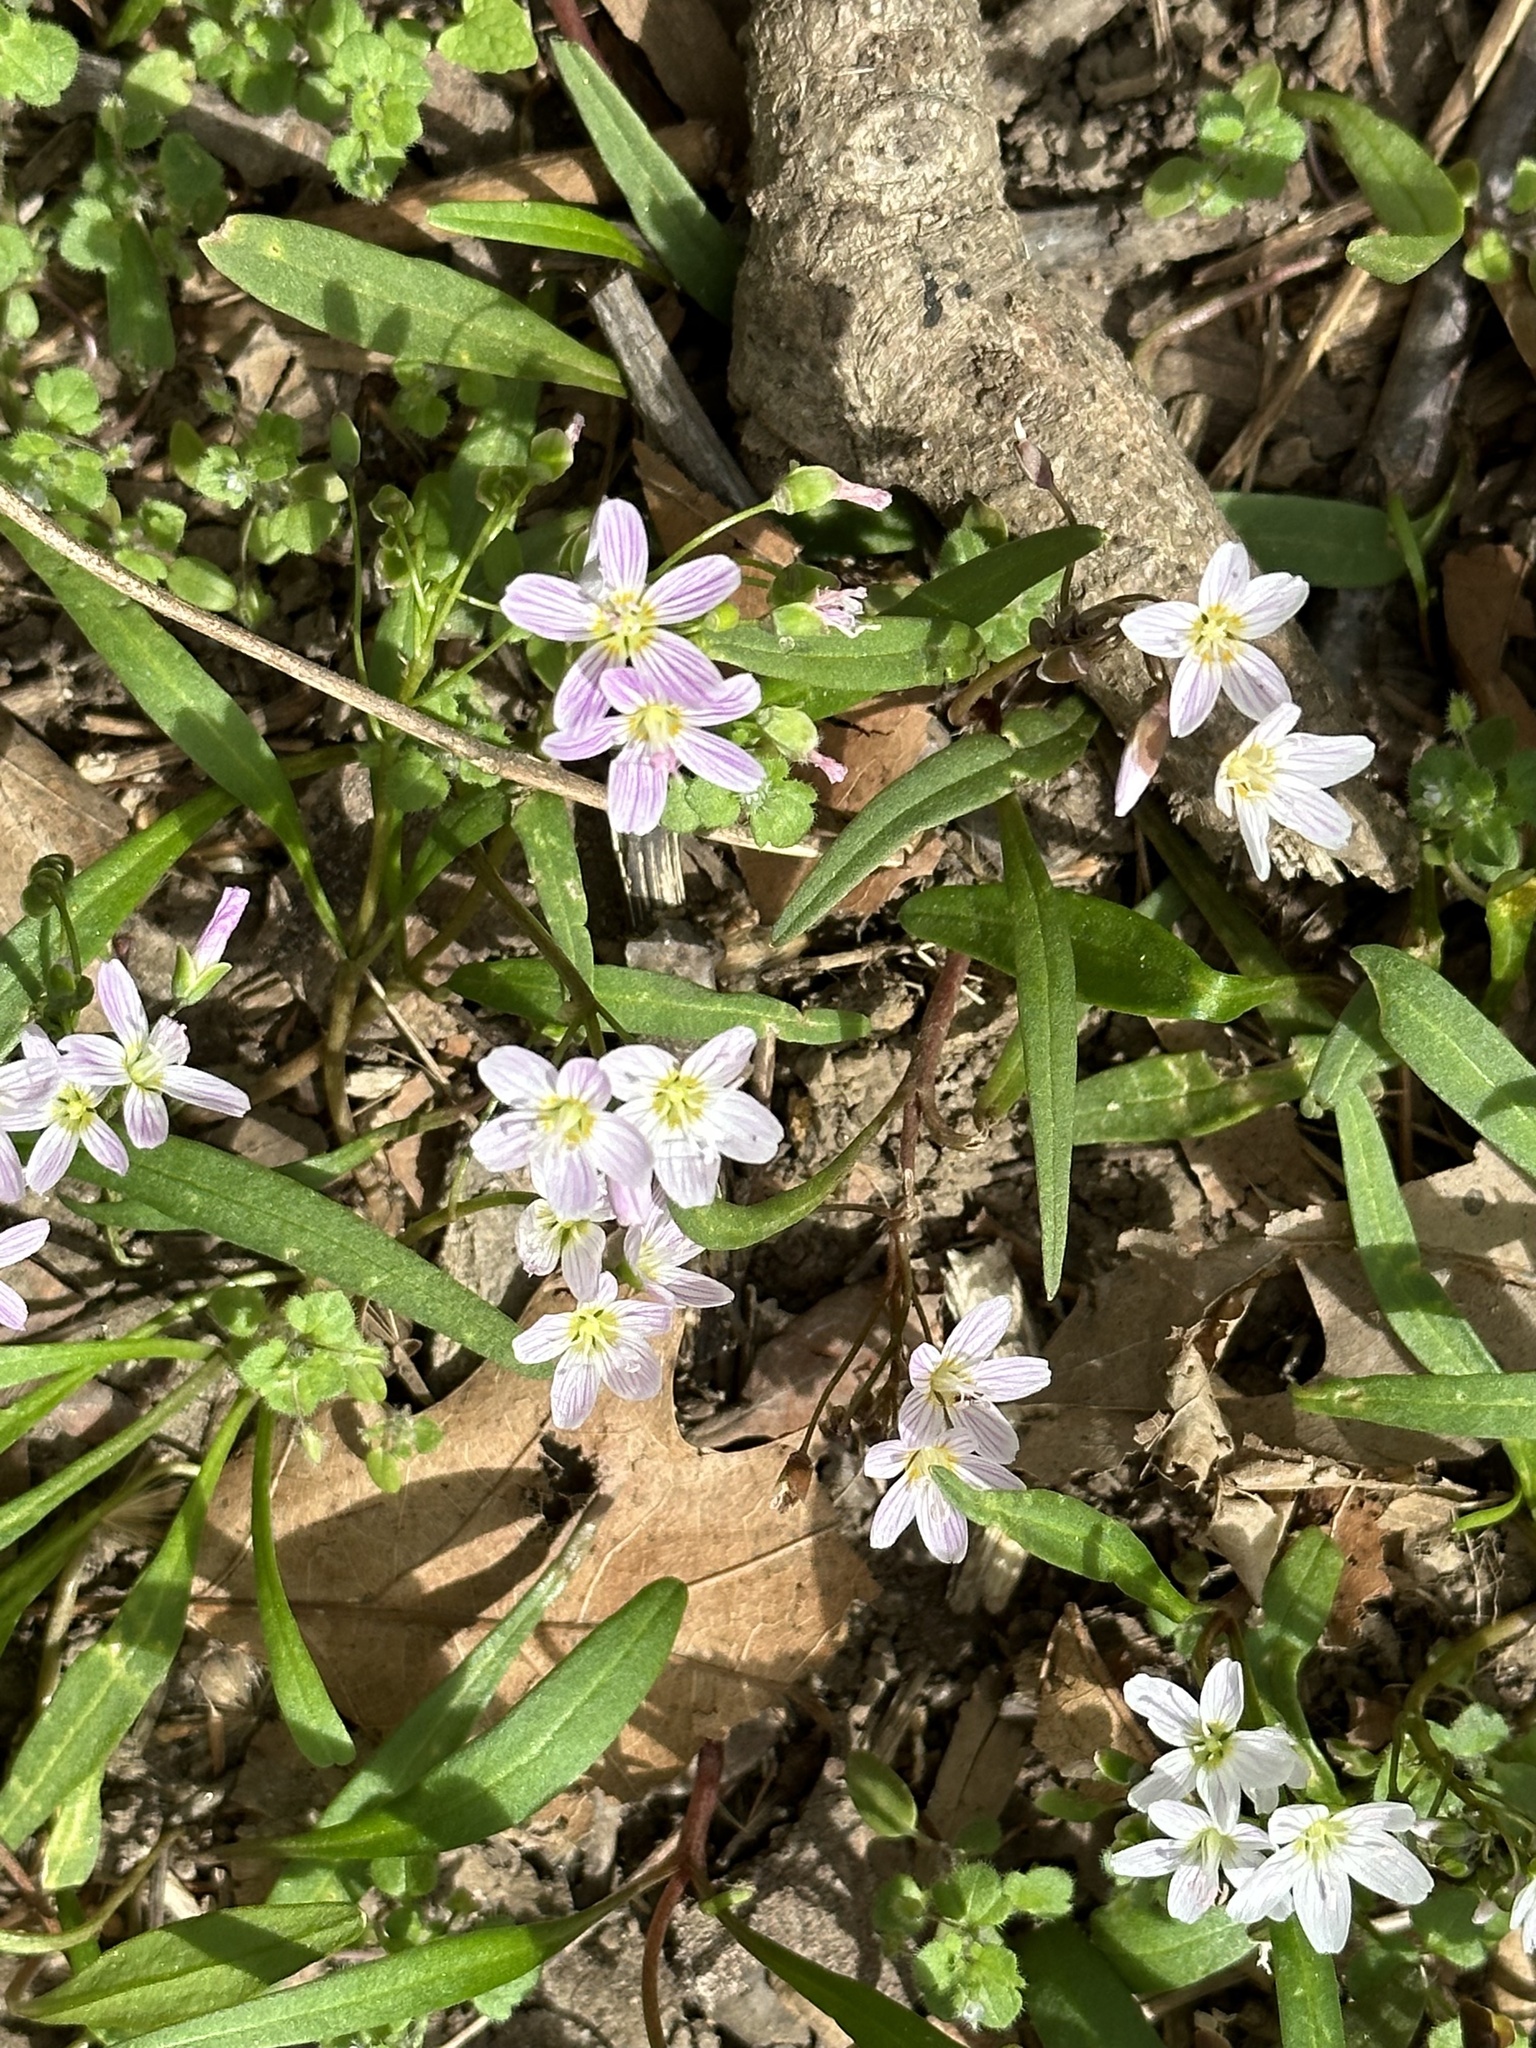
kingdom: Plantae
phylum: Tracheophyta
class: Magnoliopsida
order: Caryophyllales
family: Montiaceae
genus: Claytonia
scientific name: Claytonia virginica
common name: Virginia springbeauty
